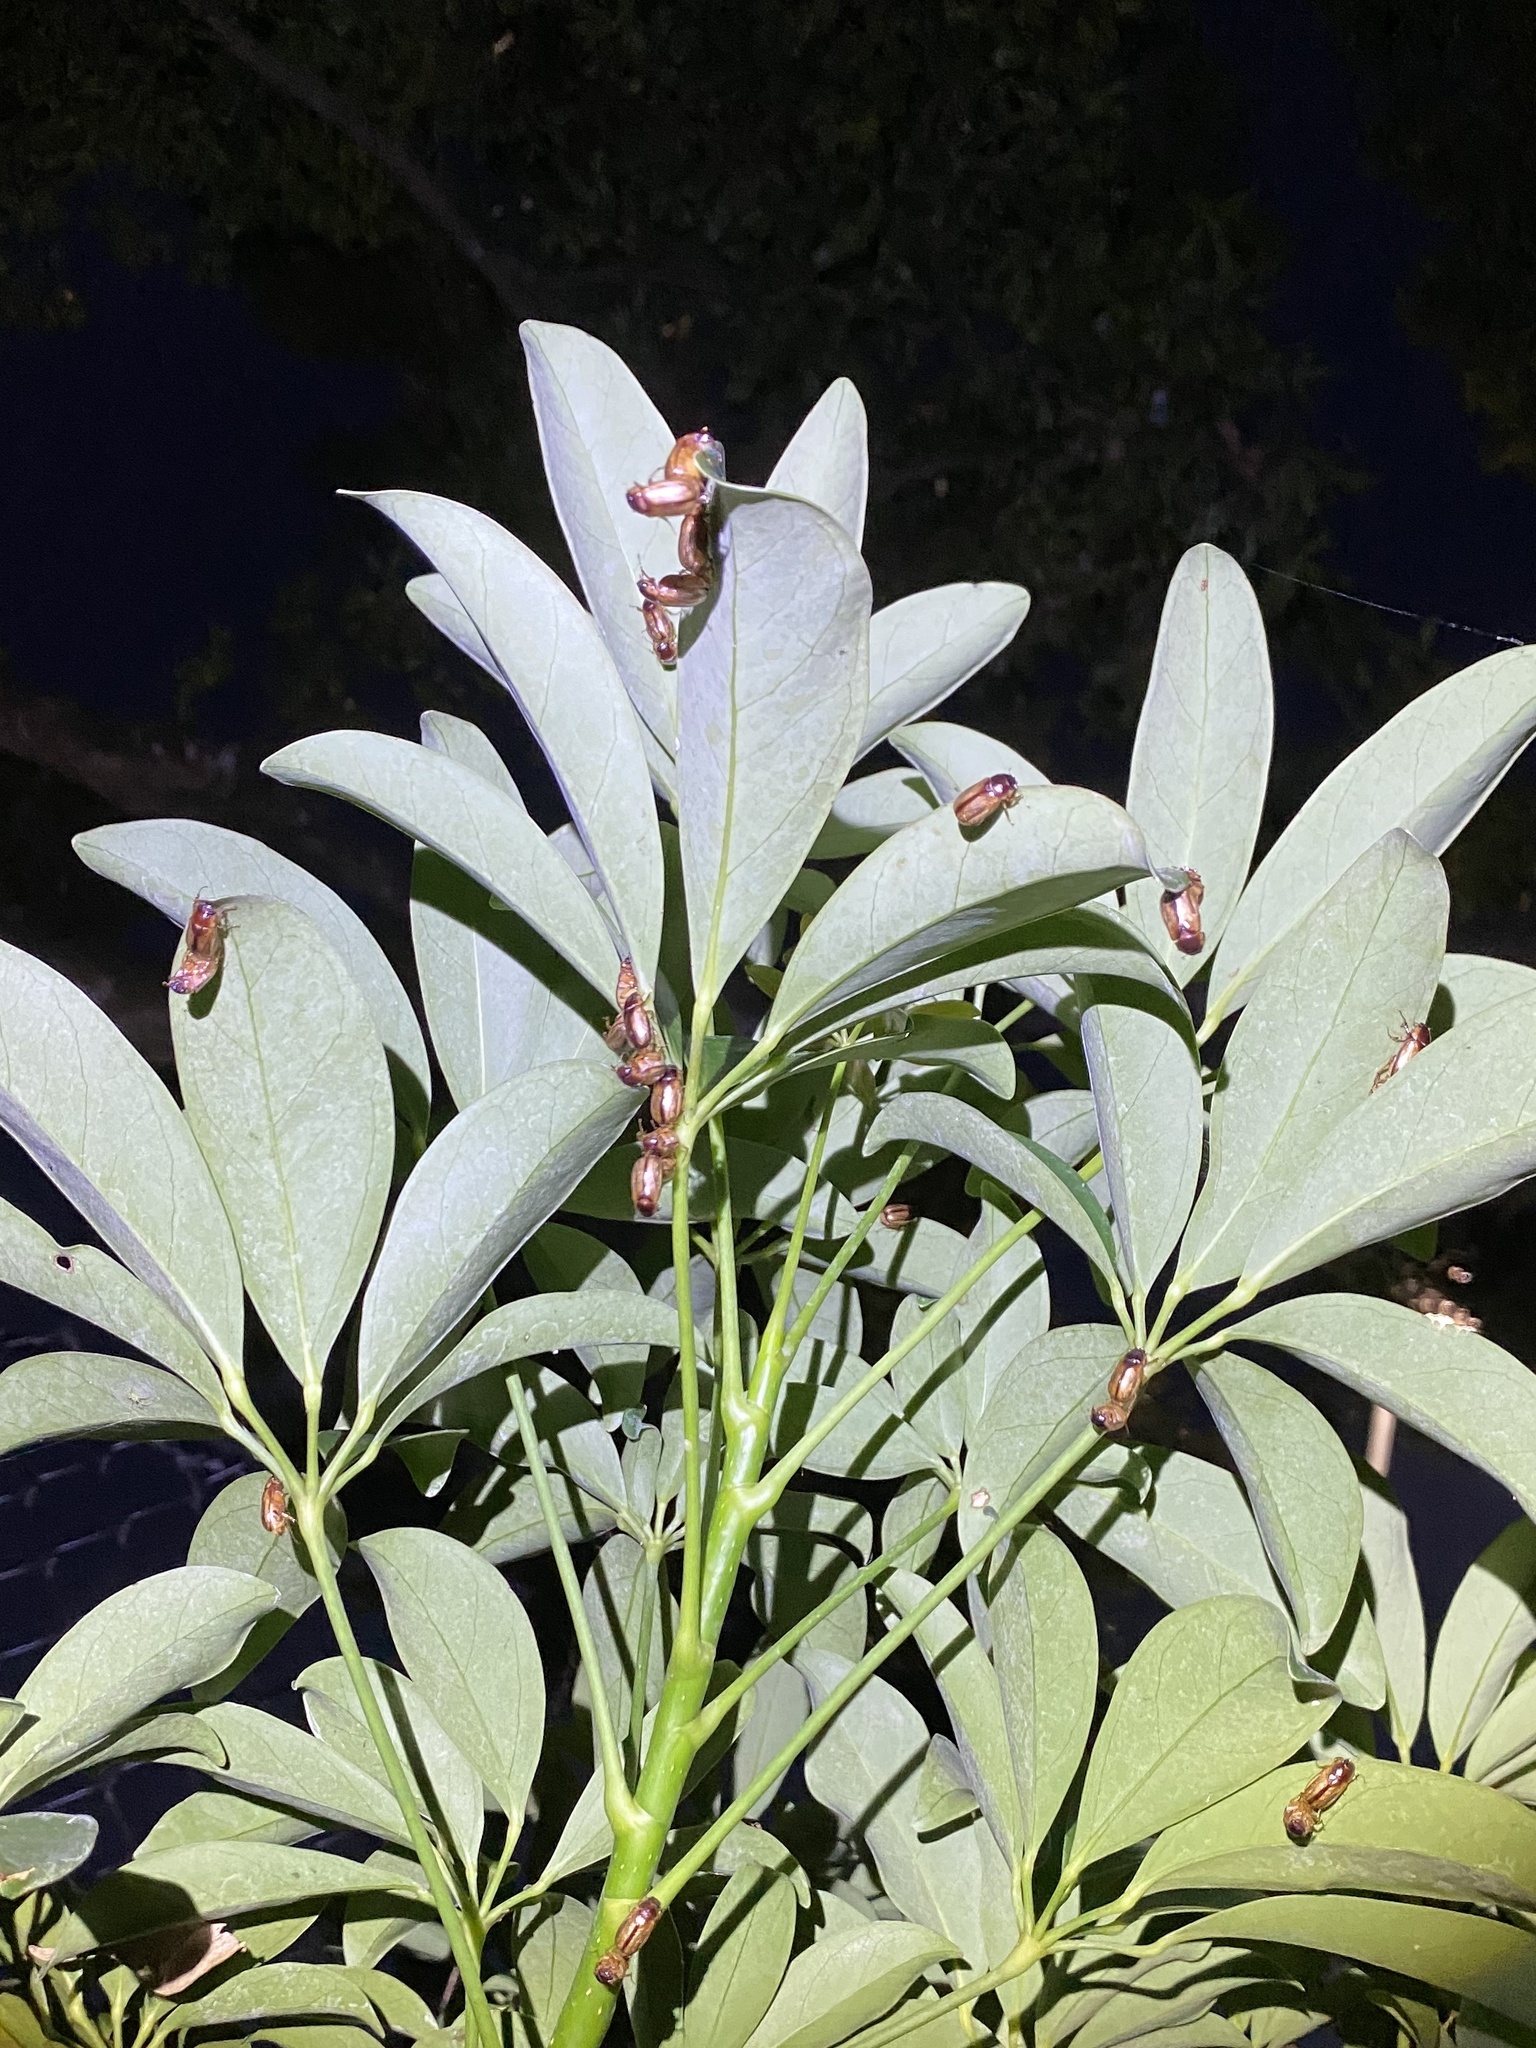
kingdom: Animalia
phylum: Arthropoda
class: Insecta
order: Coleoptera
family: Scarabaeidae
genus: Phyllophaga
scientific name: Phyllophaga bruneri
